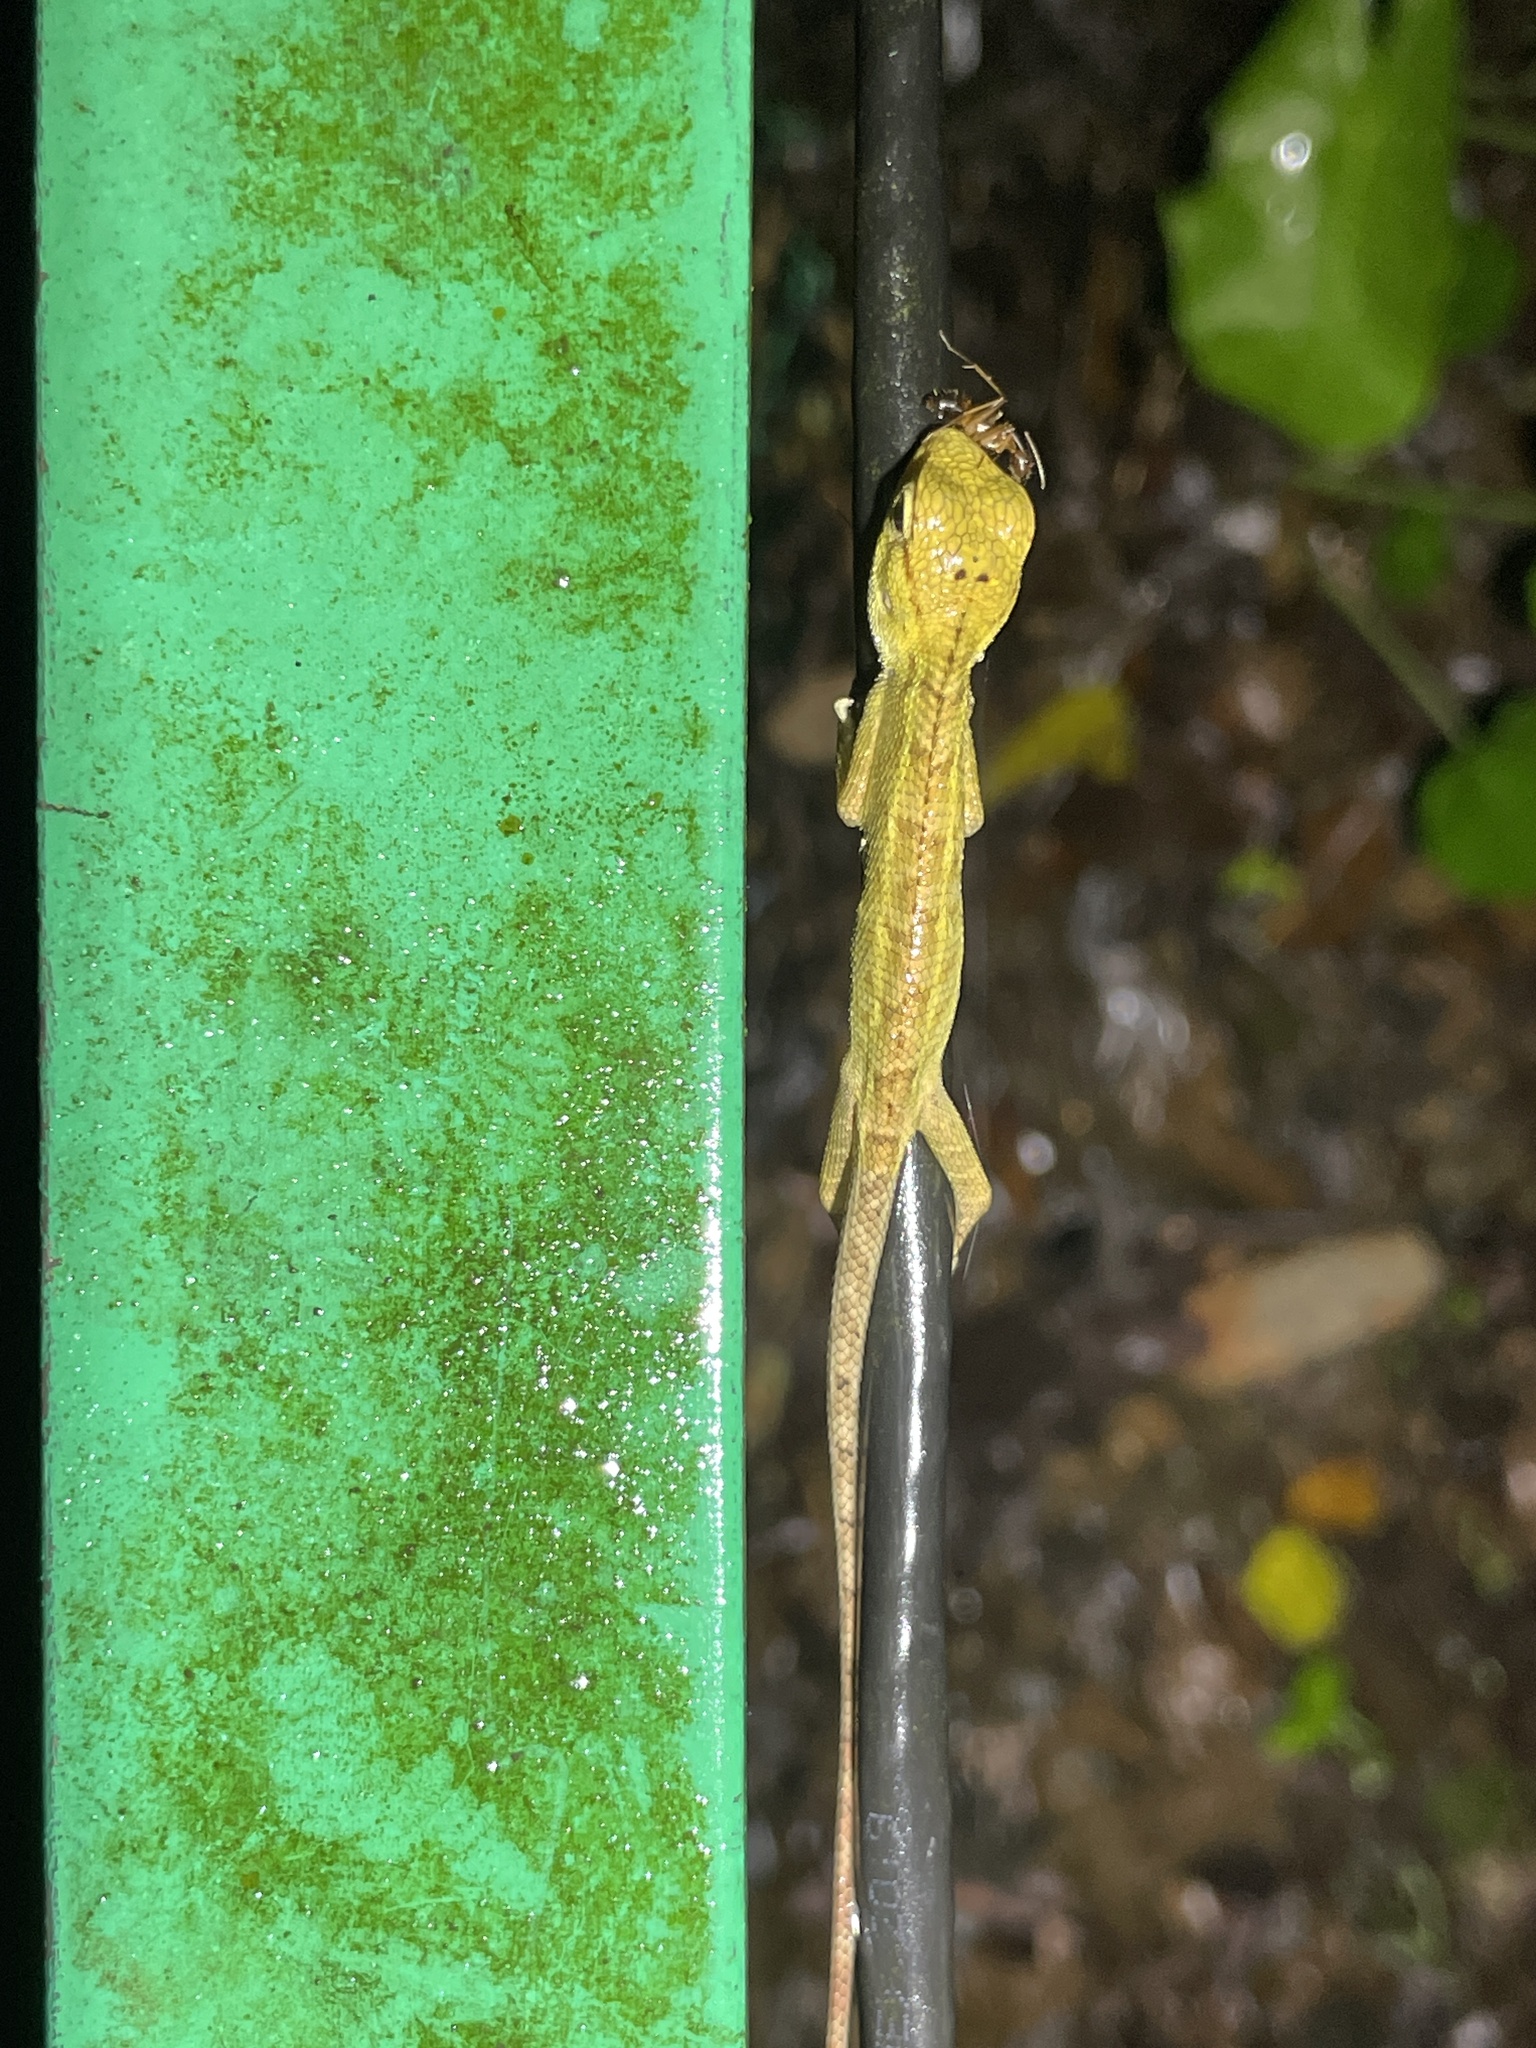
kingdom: Animalia
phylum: Chordata
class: Squamata
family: Agamidae
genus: Calotes
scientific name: Calotes versicolor
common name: Oriental garden lizard
